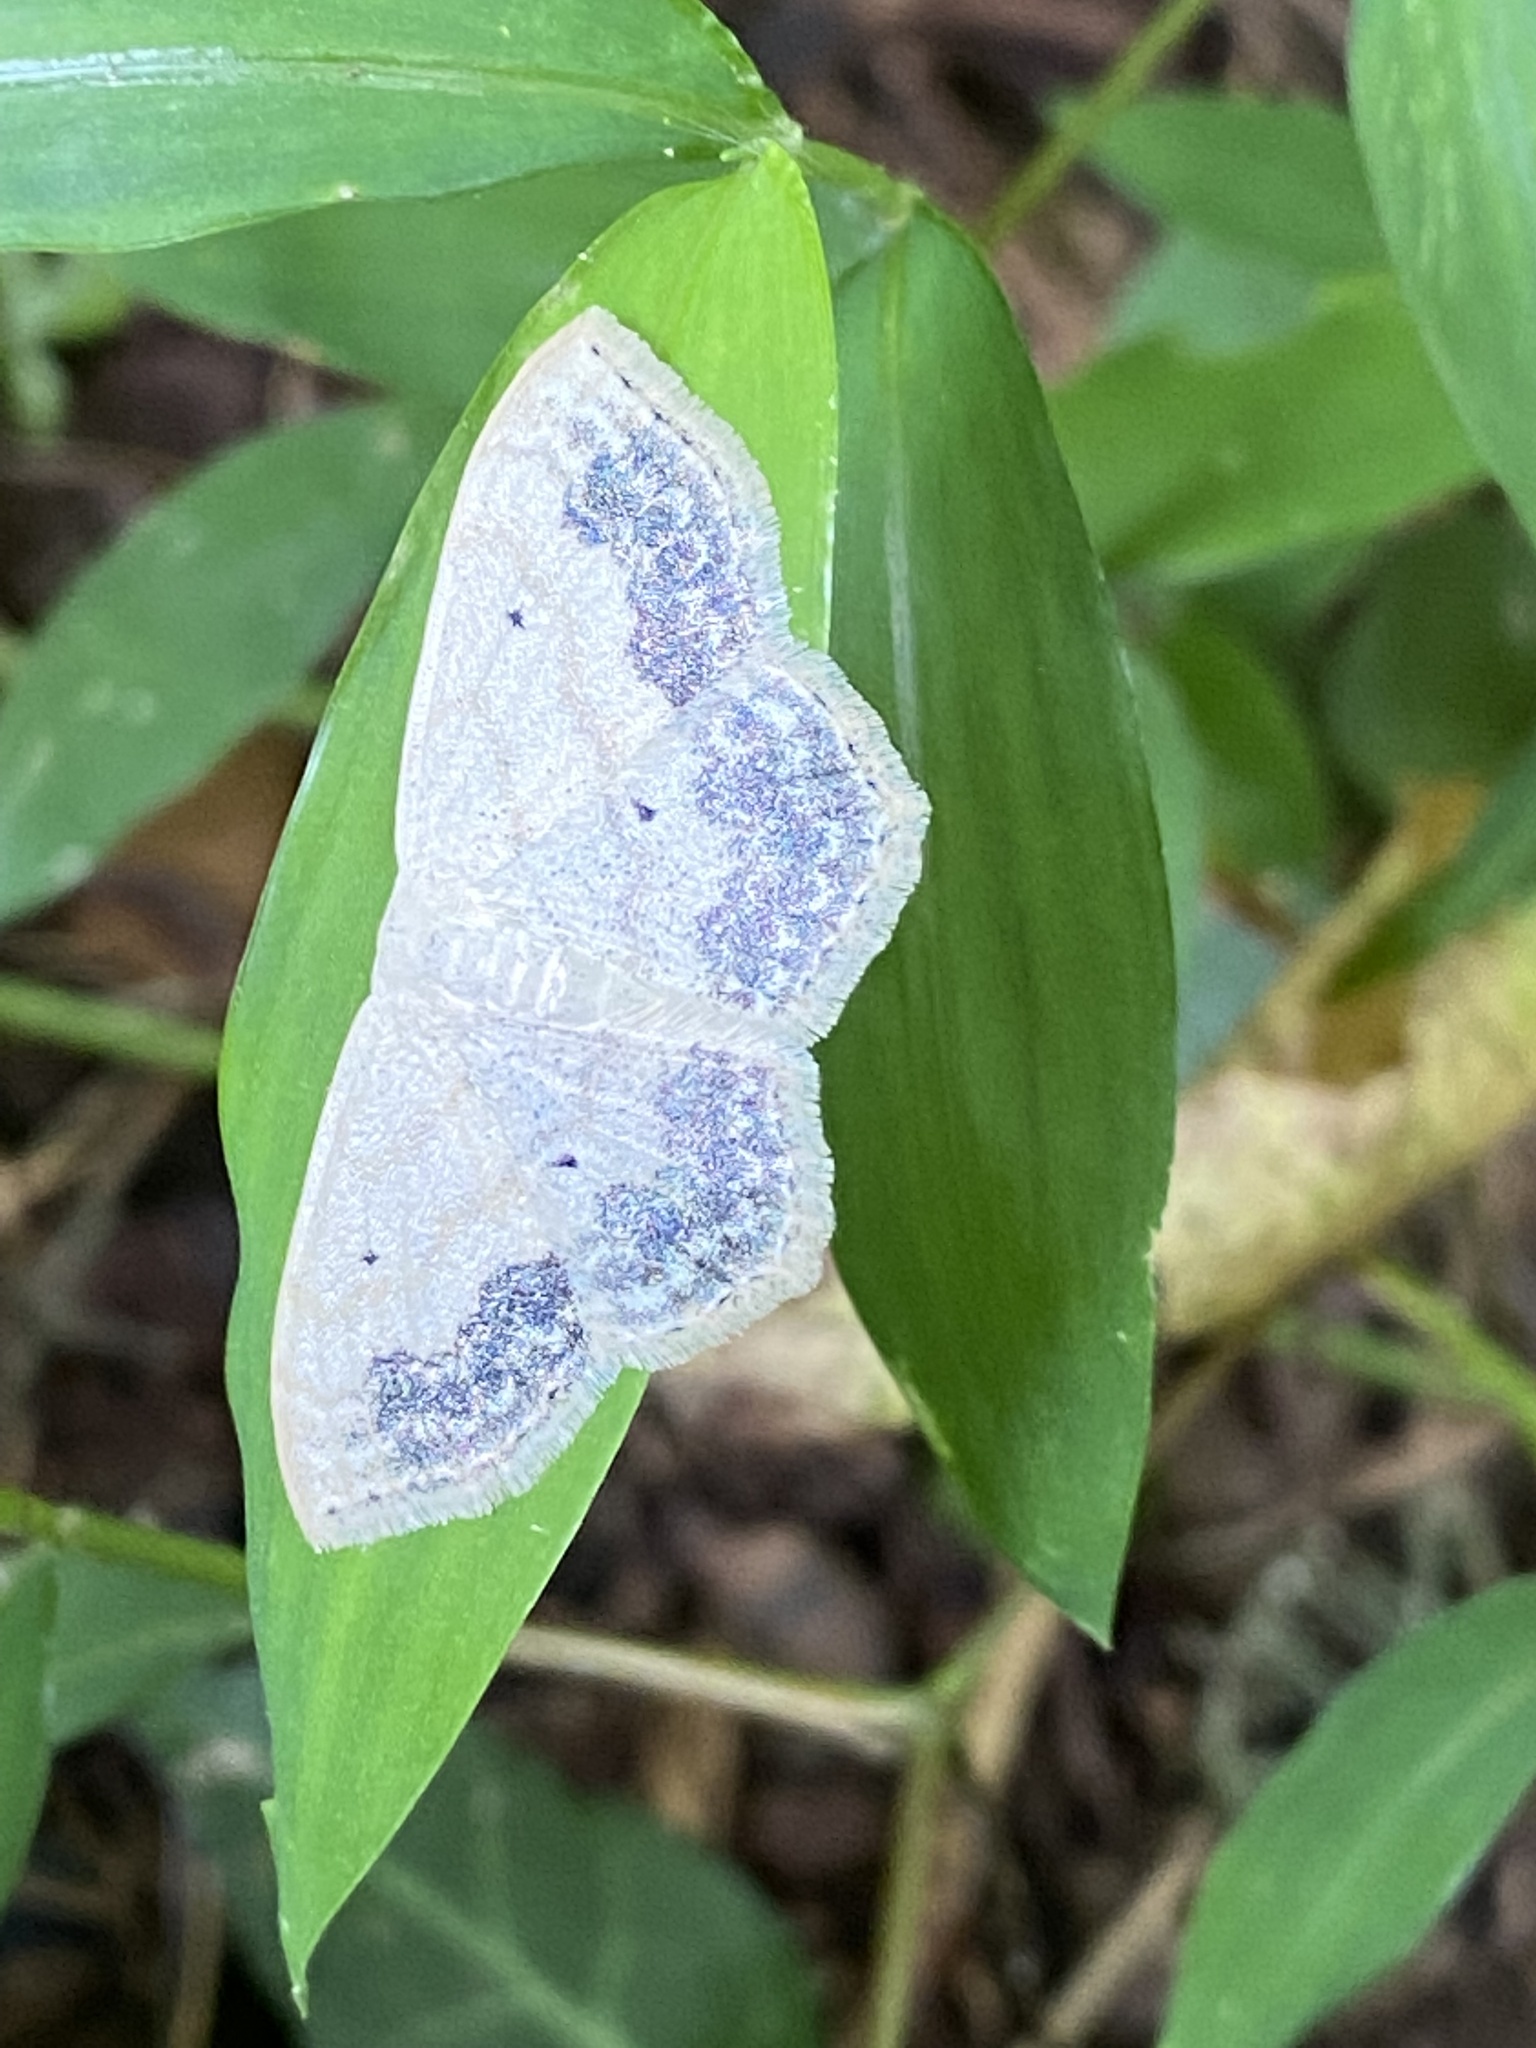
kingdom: Animalia
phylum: Arthropoda
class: Insecta
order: Lepidoptera
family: Geometridae
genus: Scopula
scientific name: Scopula limboundata
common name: Large lace border
